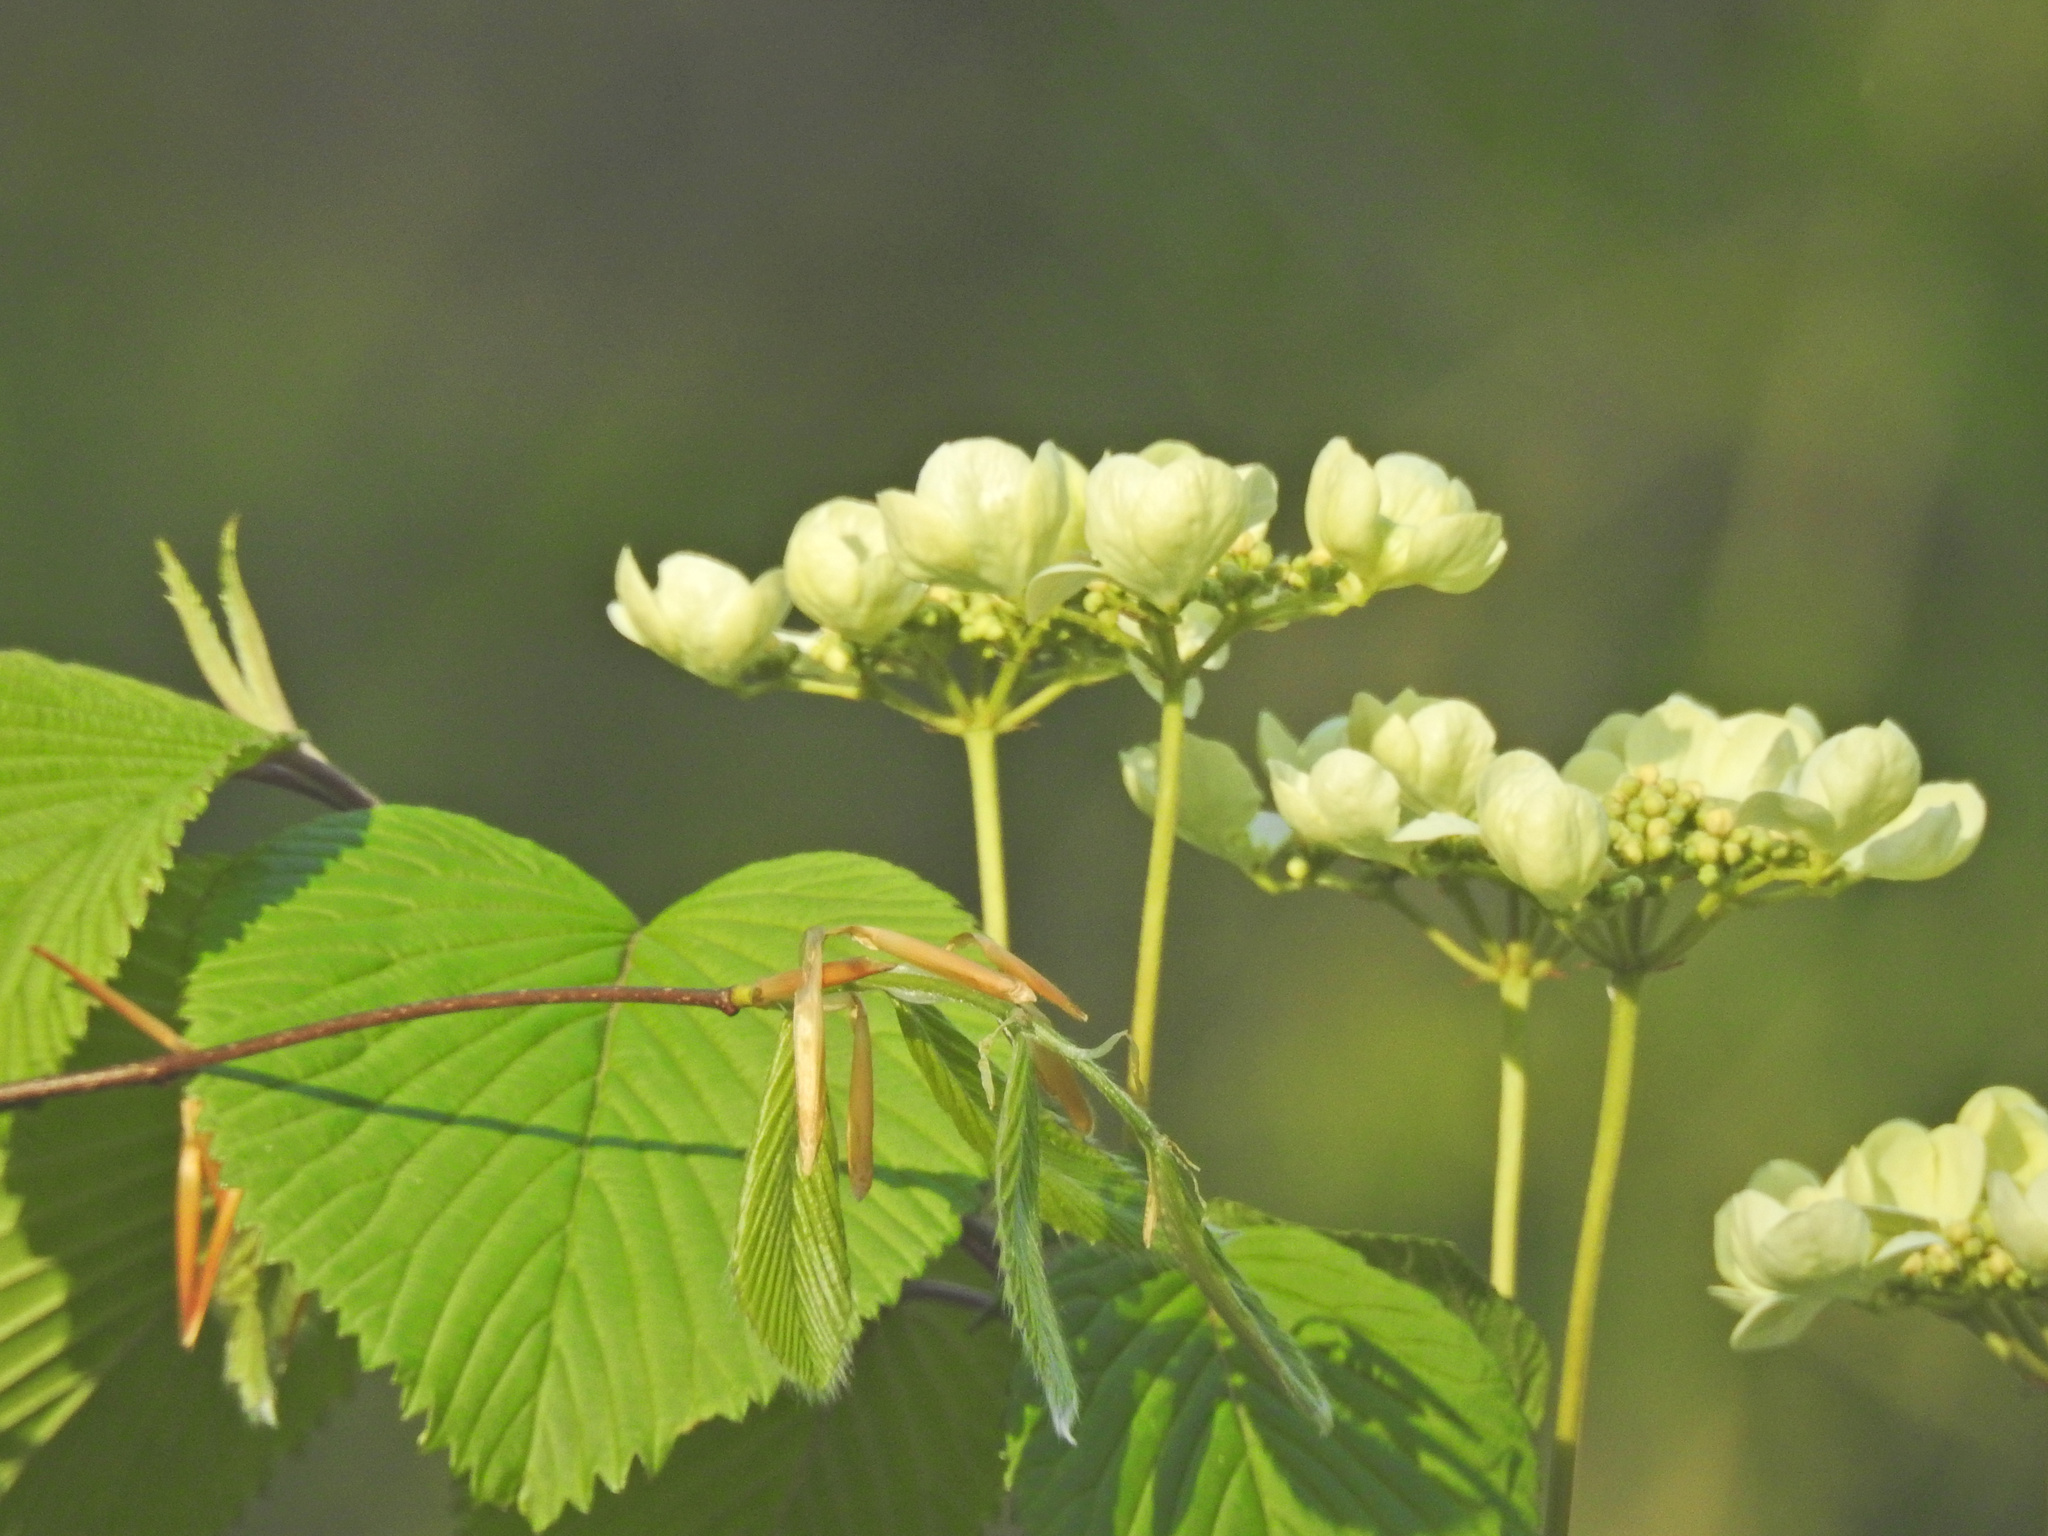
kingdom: Plantae
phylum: Tracheophyta
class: Magnoliopsida
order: Dipsacales
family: Viburnaceae
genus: Viburnum
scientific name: Viburnum plicatum
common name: Japanese snowball
